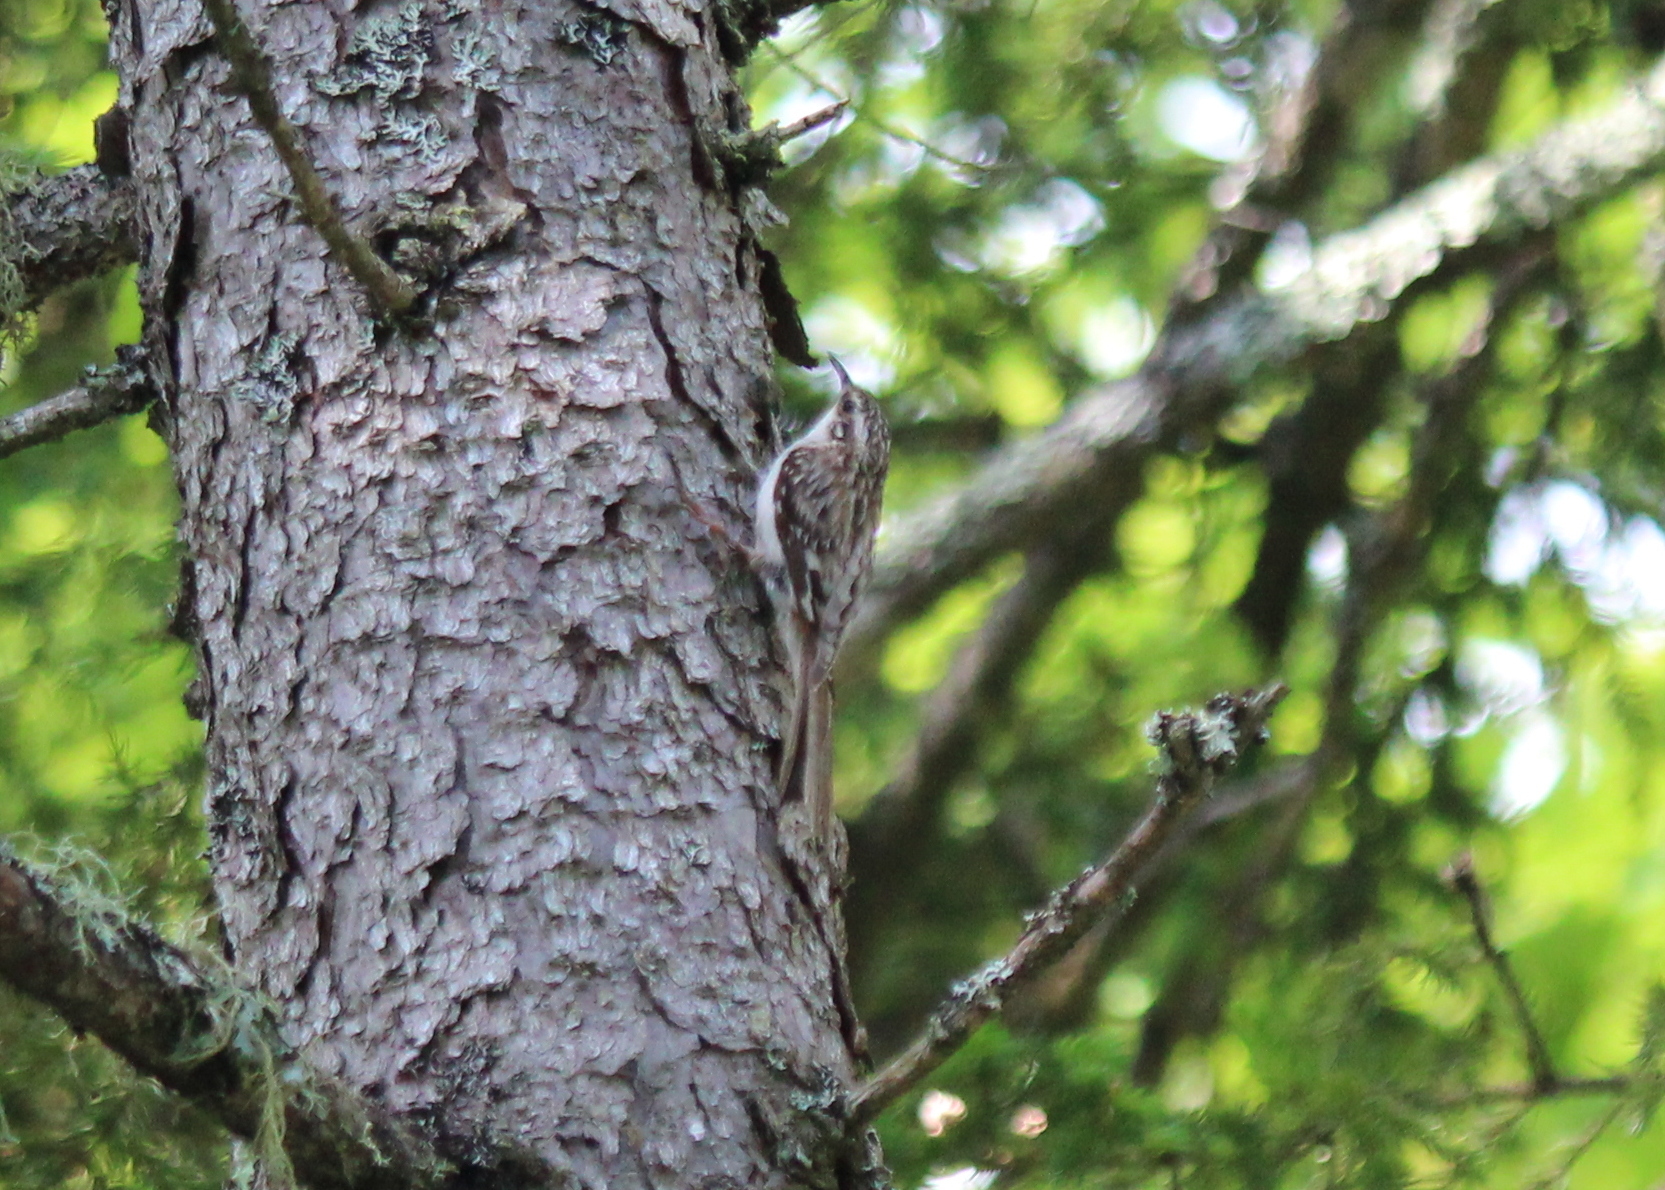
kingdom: Animalia
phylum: Chordata
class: Aves
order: Passeriformes
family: Certhiidae
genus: Certhia
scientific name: Certhia americana
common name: Brown creeper
